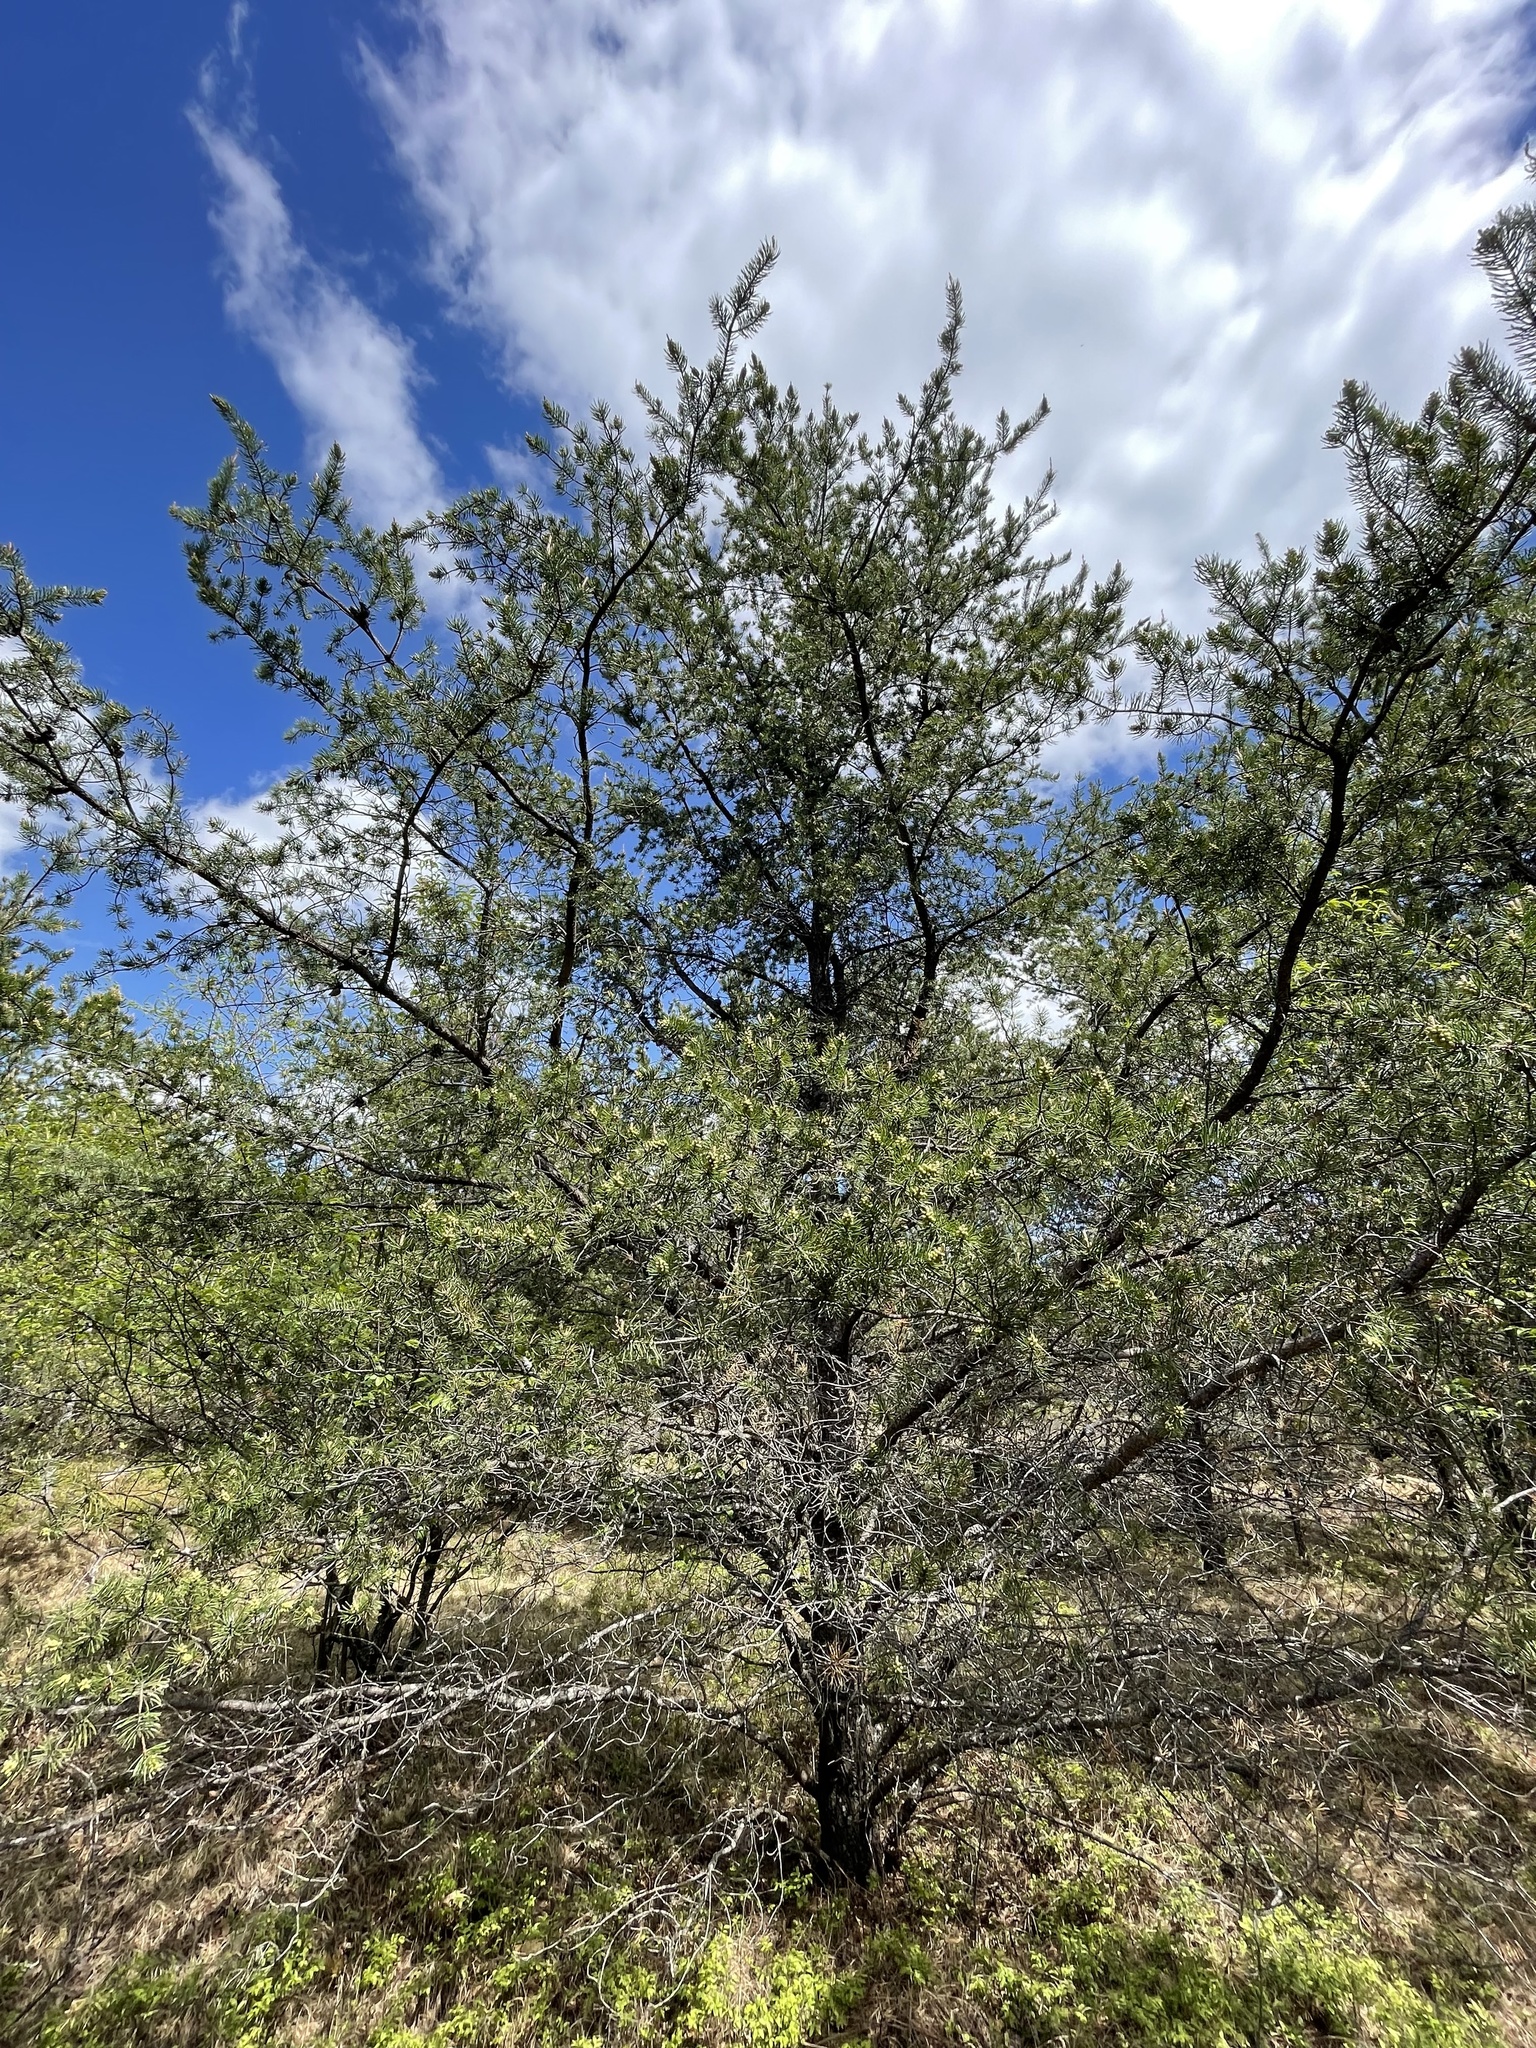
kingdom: Plantae
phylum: Tracheophyta
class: Pinopsida
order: Pinales
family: Pinaceae
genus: Pinus
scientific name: Pinus banksiana
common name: Jack pine
